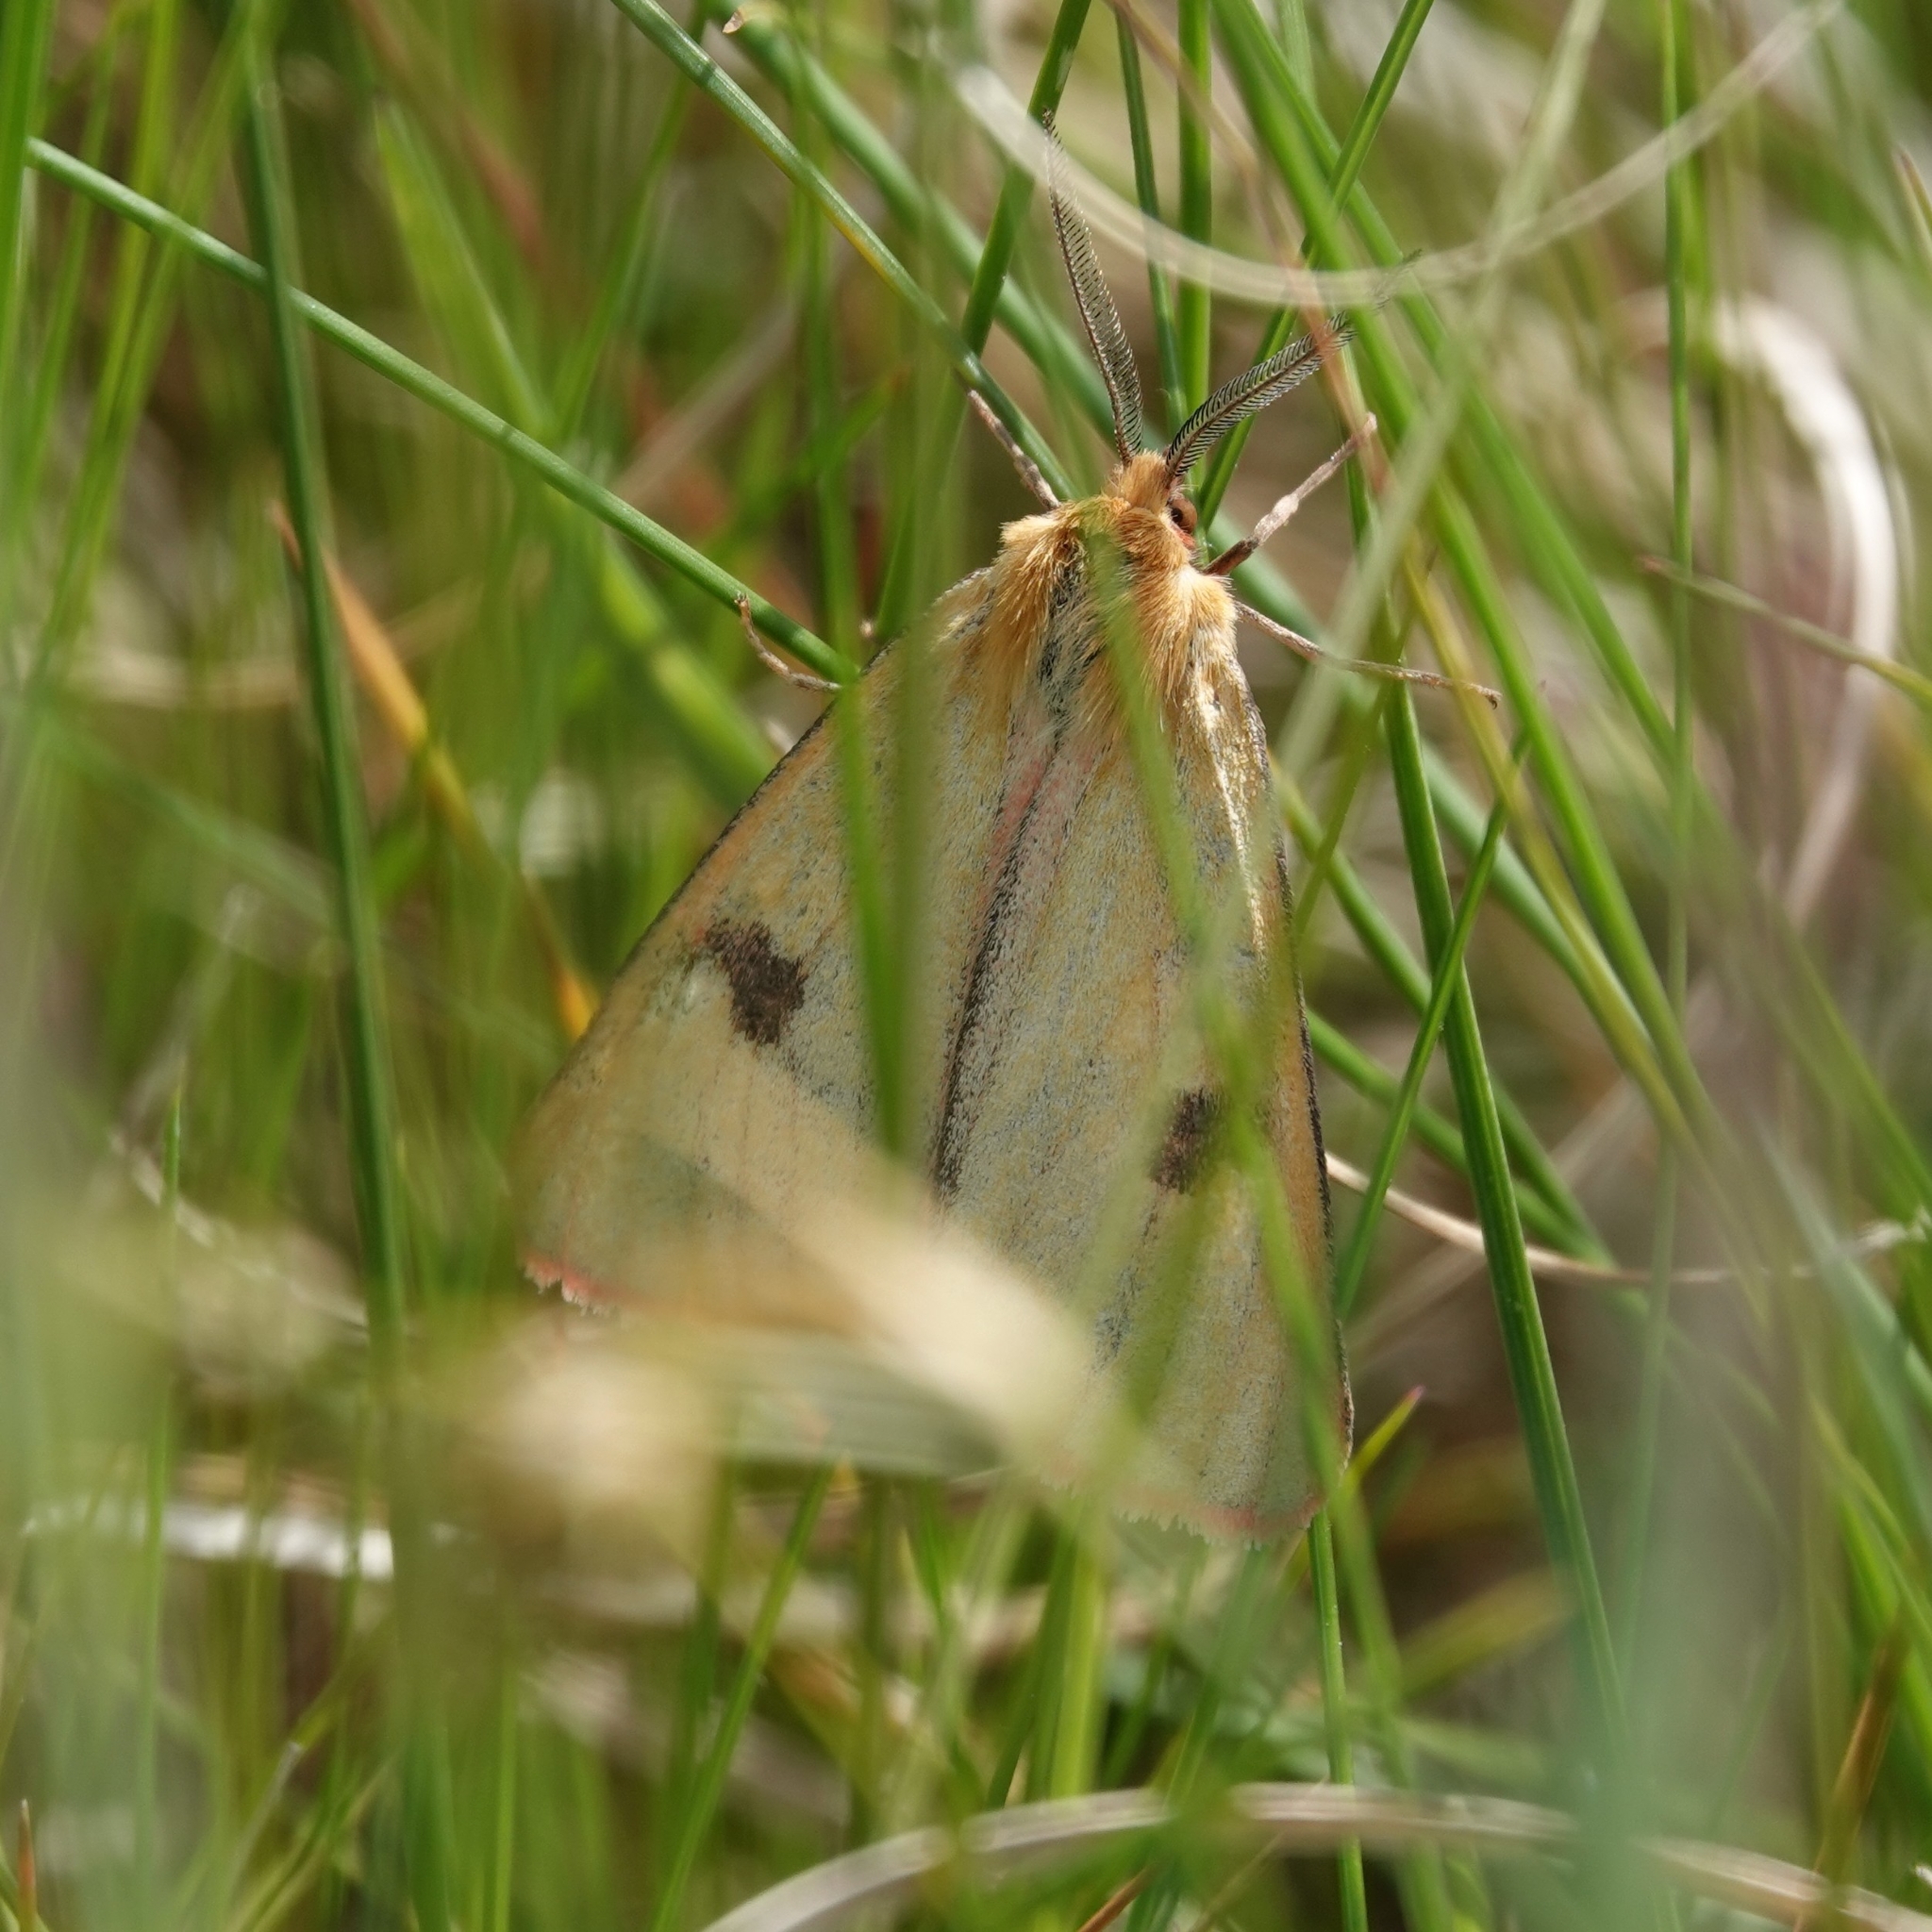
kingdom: Animalia
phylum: Arthropoda
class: Insecta
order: Lepidoptera
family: Erebidae
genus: Diacrisia
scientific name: Diacrisia sannio
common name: Clouded buff
